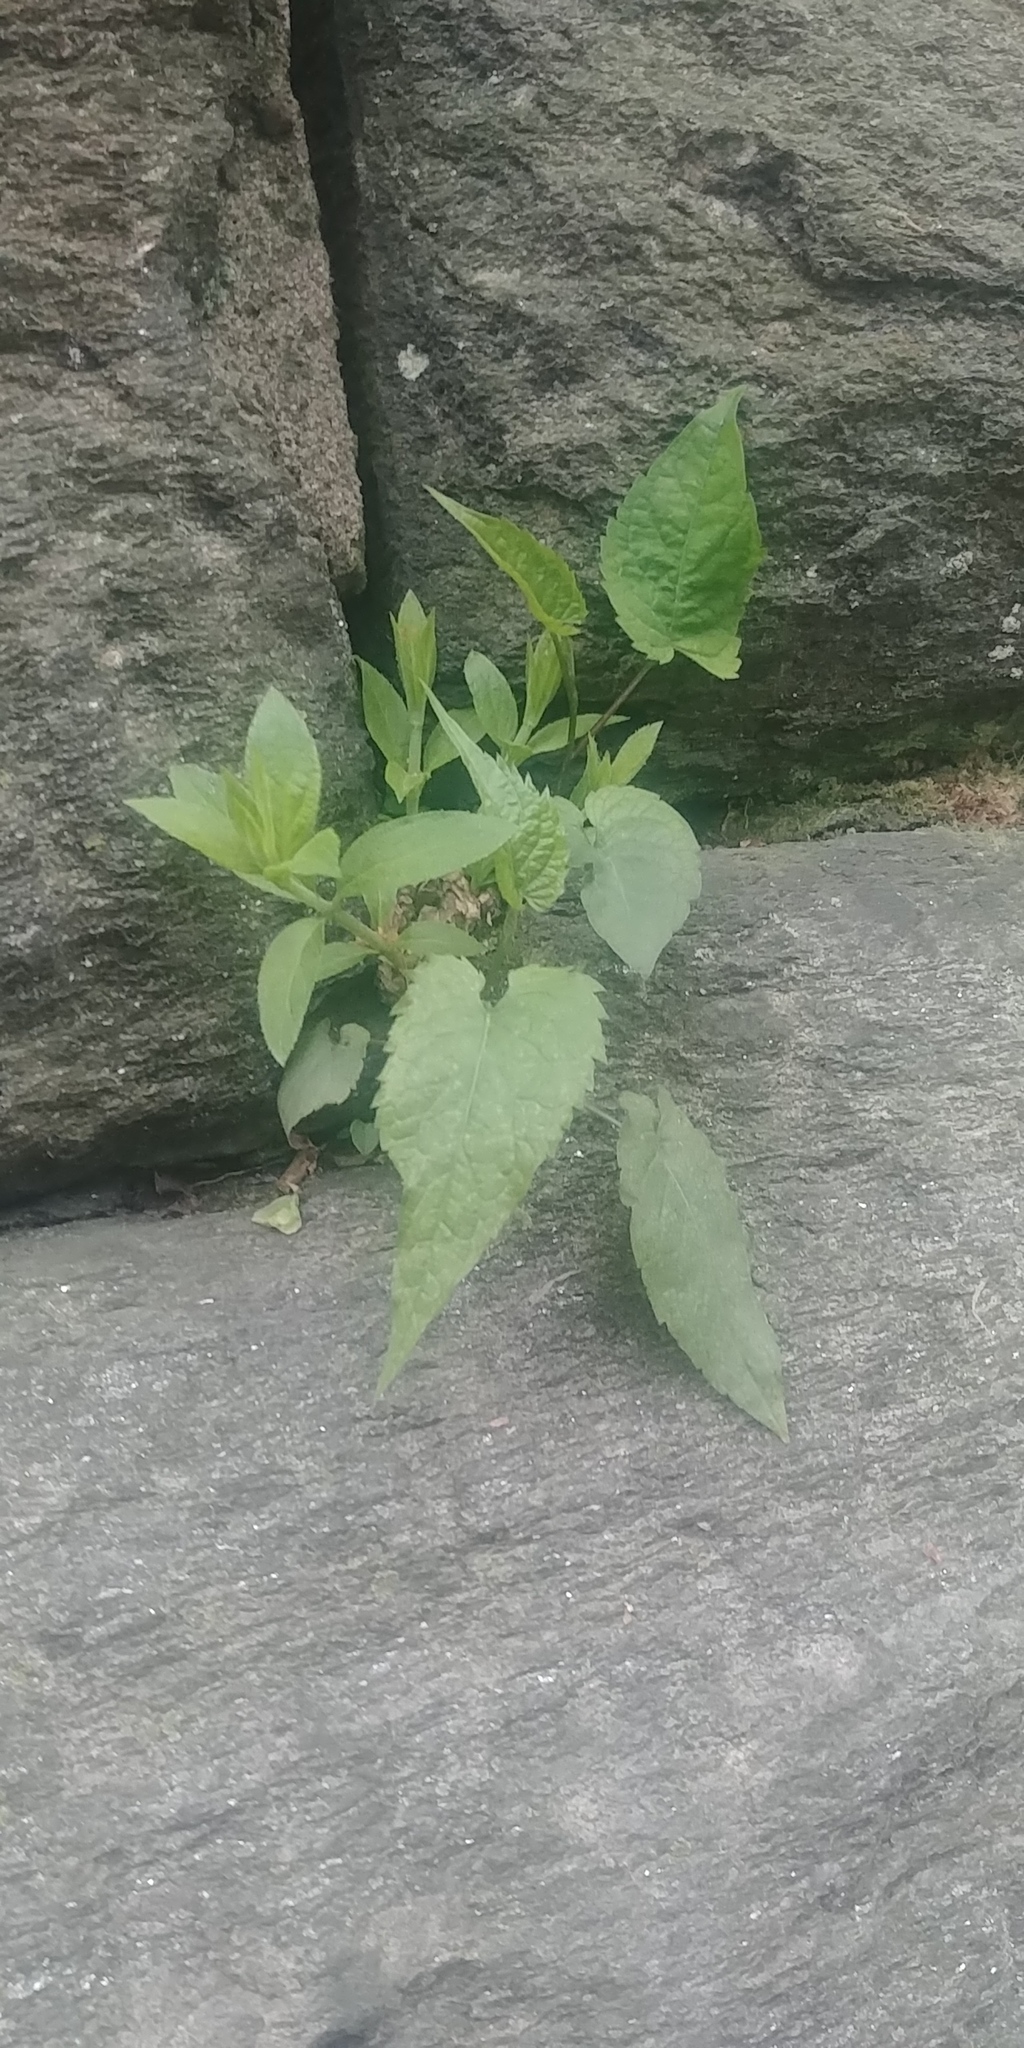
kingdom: Plantae
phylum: Tracheophyta
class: Magnoliopsida
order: Asterales
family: Asteraceae
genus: Eurybia
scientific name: Eurybia divaricata
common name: White wood aster
